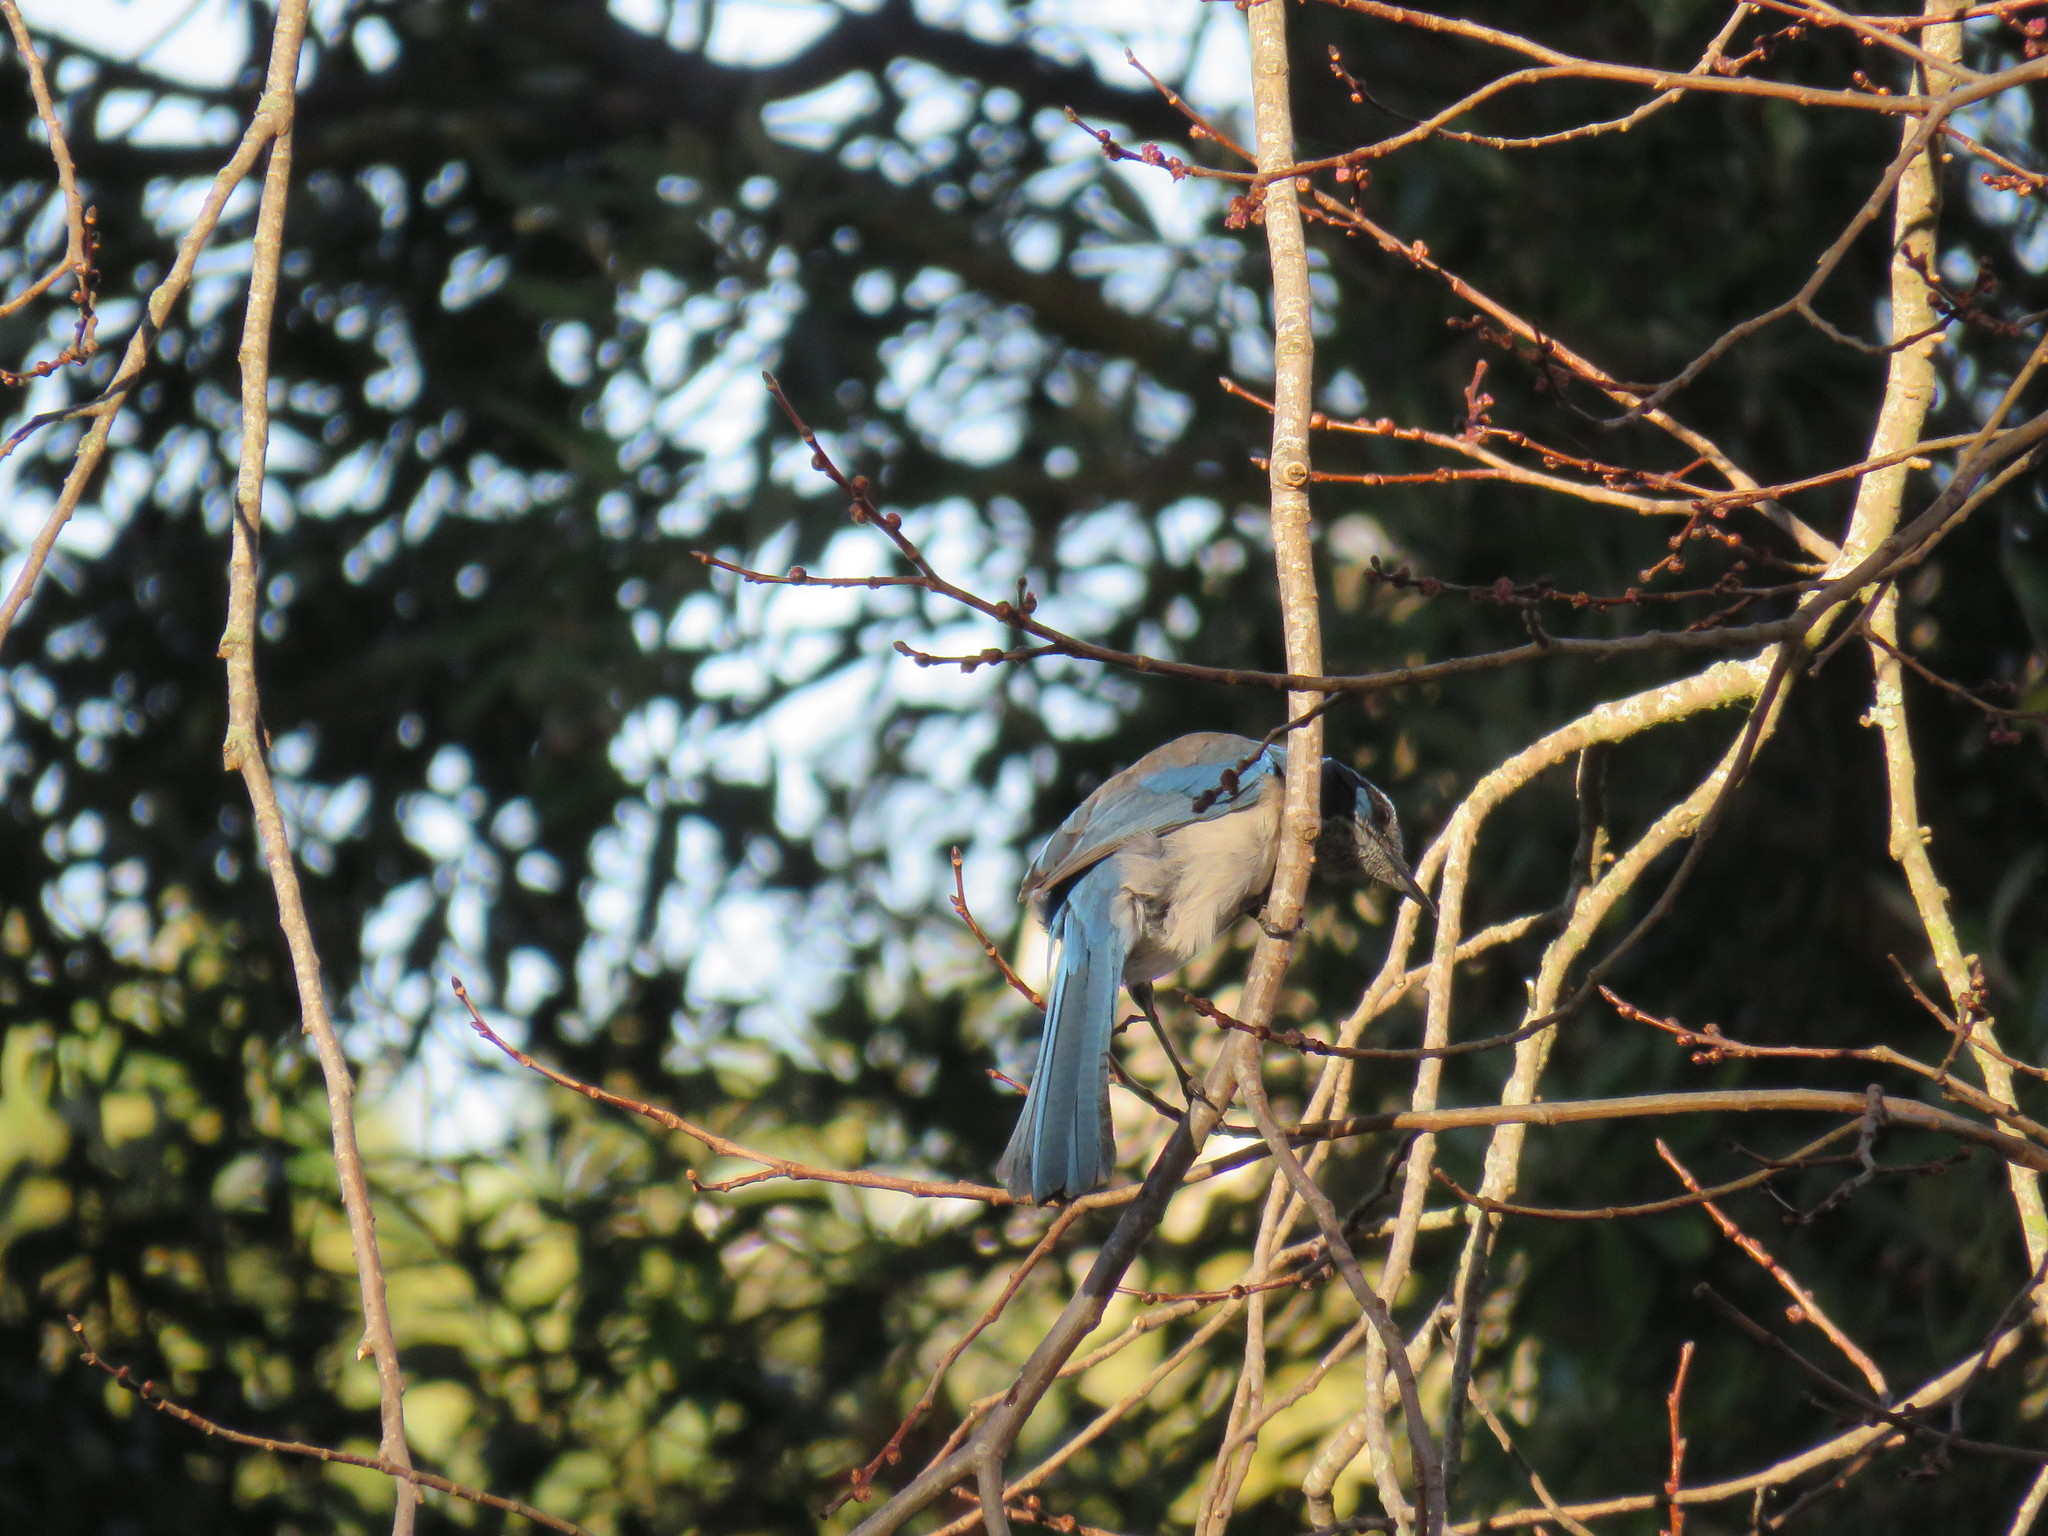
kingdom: Animalia
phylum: Chordata
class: Aves
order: Passeriformes
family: Corvidae
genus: Aphelocoma
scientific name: Aphelocoma californica
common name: California scrub-jay
